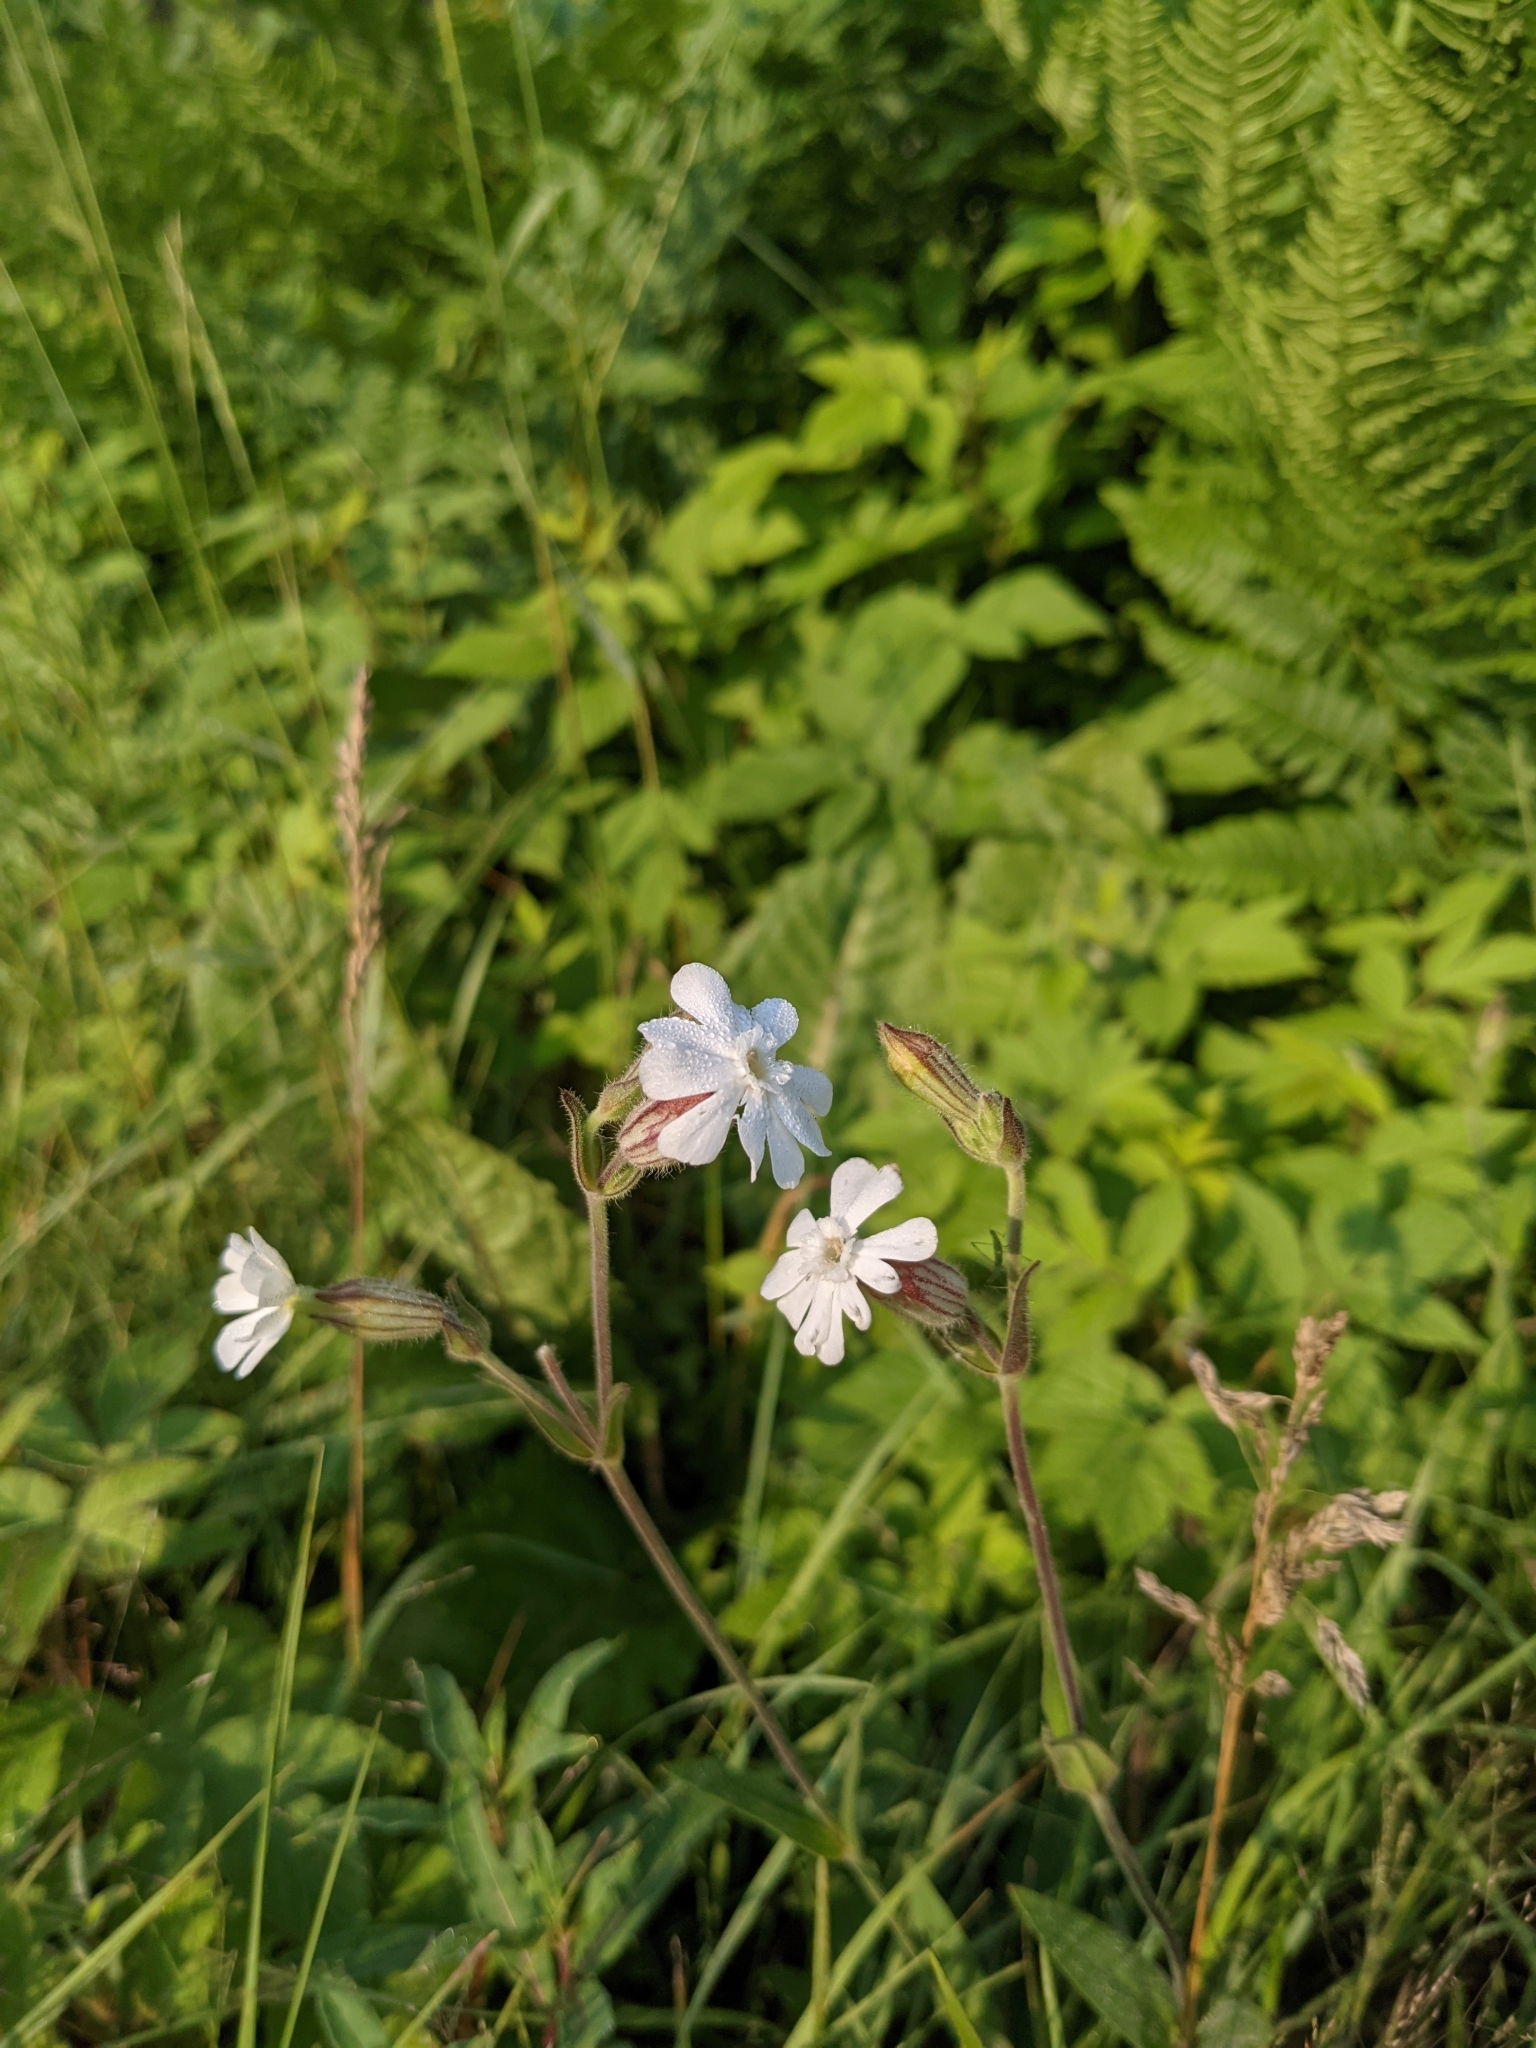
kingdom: Plantae
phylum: Tracheophyta
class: Magnoliopsida
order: Caryophyllales
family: Caryophyllaceae
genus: Silene
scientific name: Silene latifolia
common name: White campion
